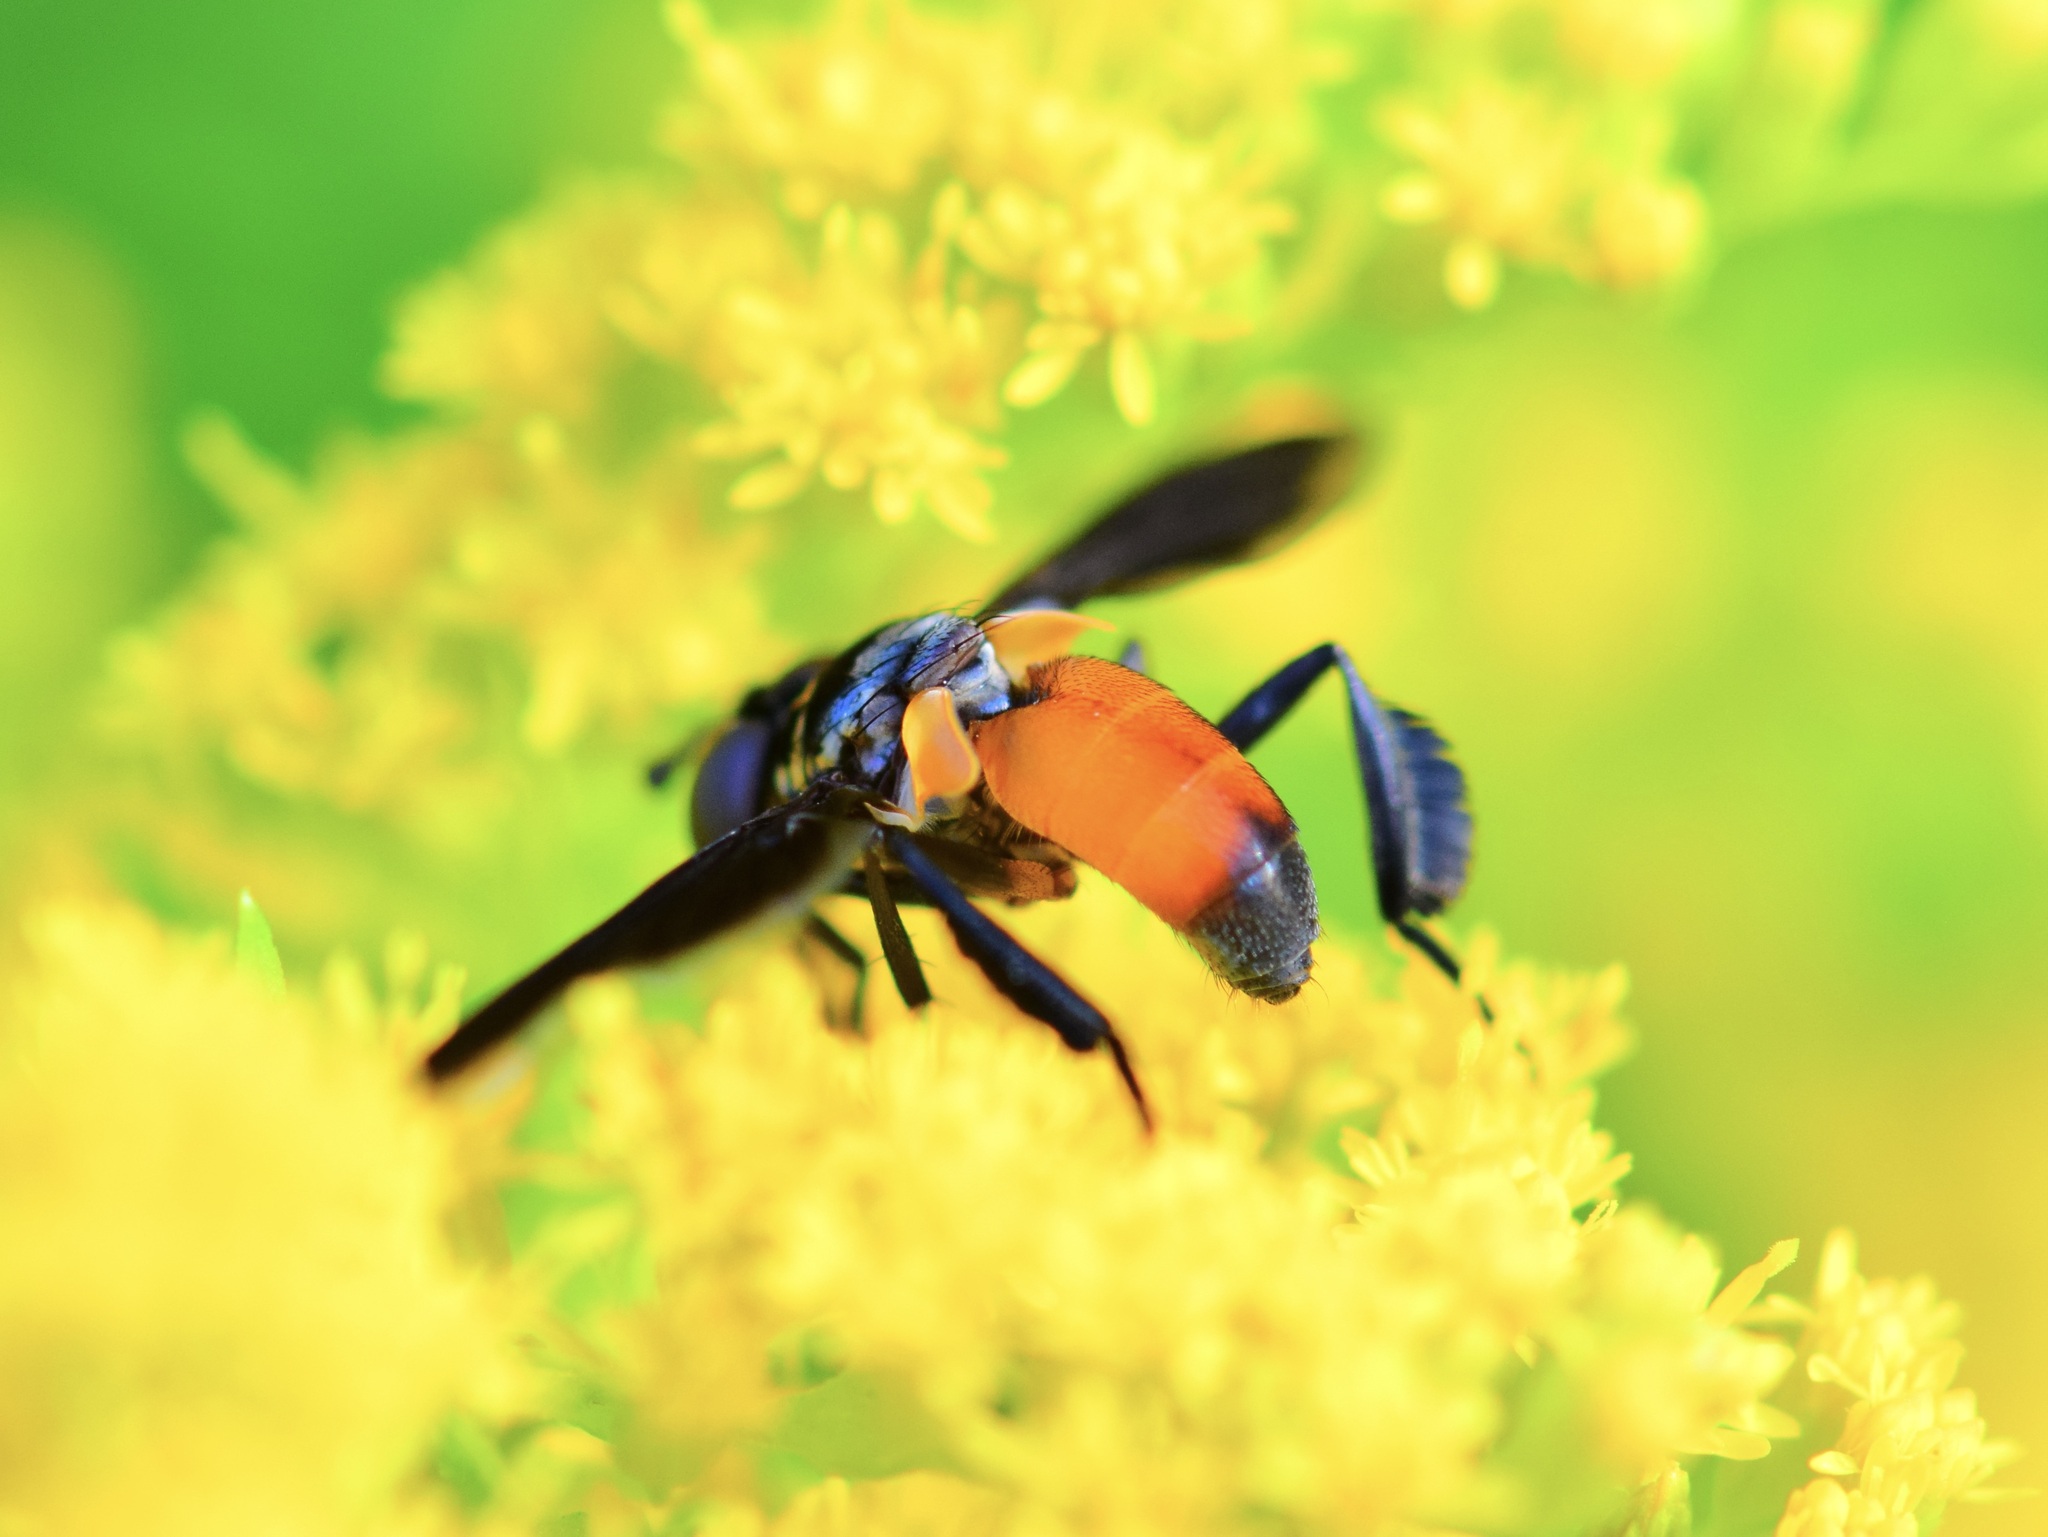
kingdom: Animalia
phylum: Arthropoda
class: Insecta
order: Diptera
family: Tachinidae
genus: Trichopoda
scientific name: Trichopoda pennipes
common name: Tachinid fly
